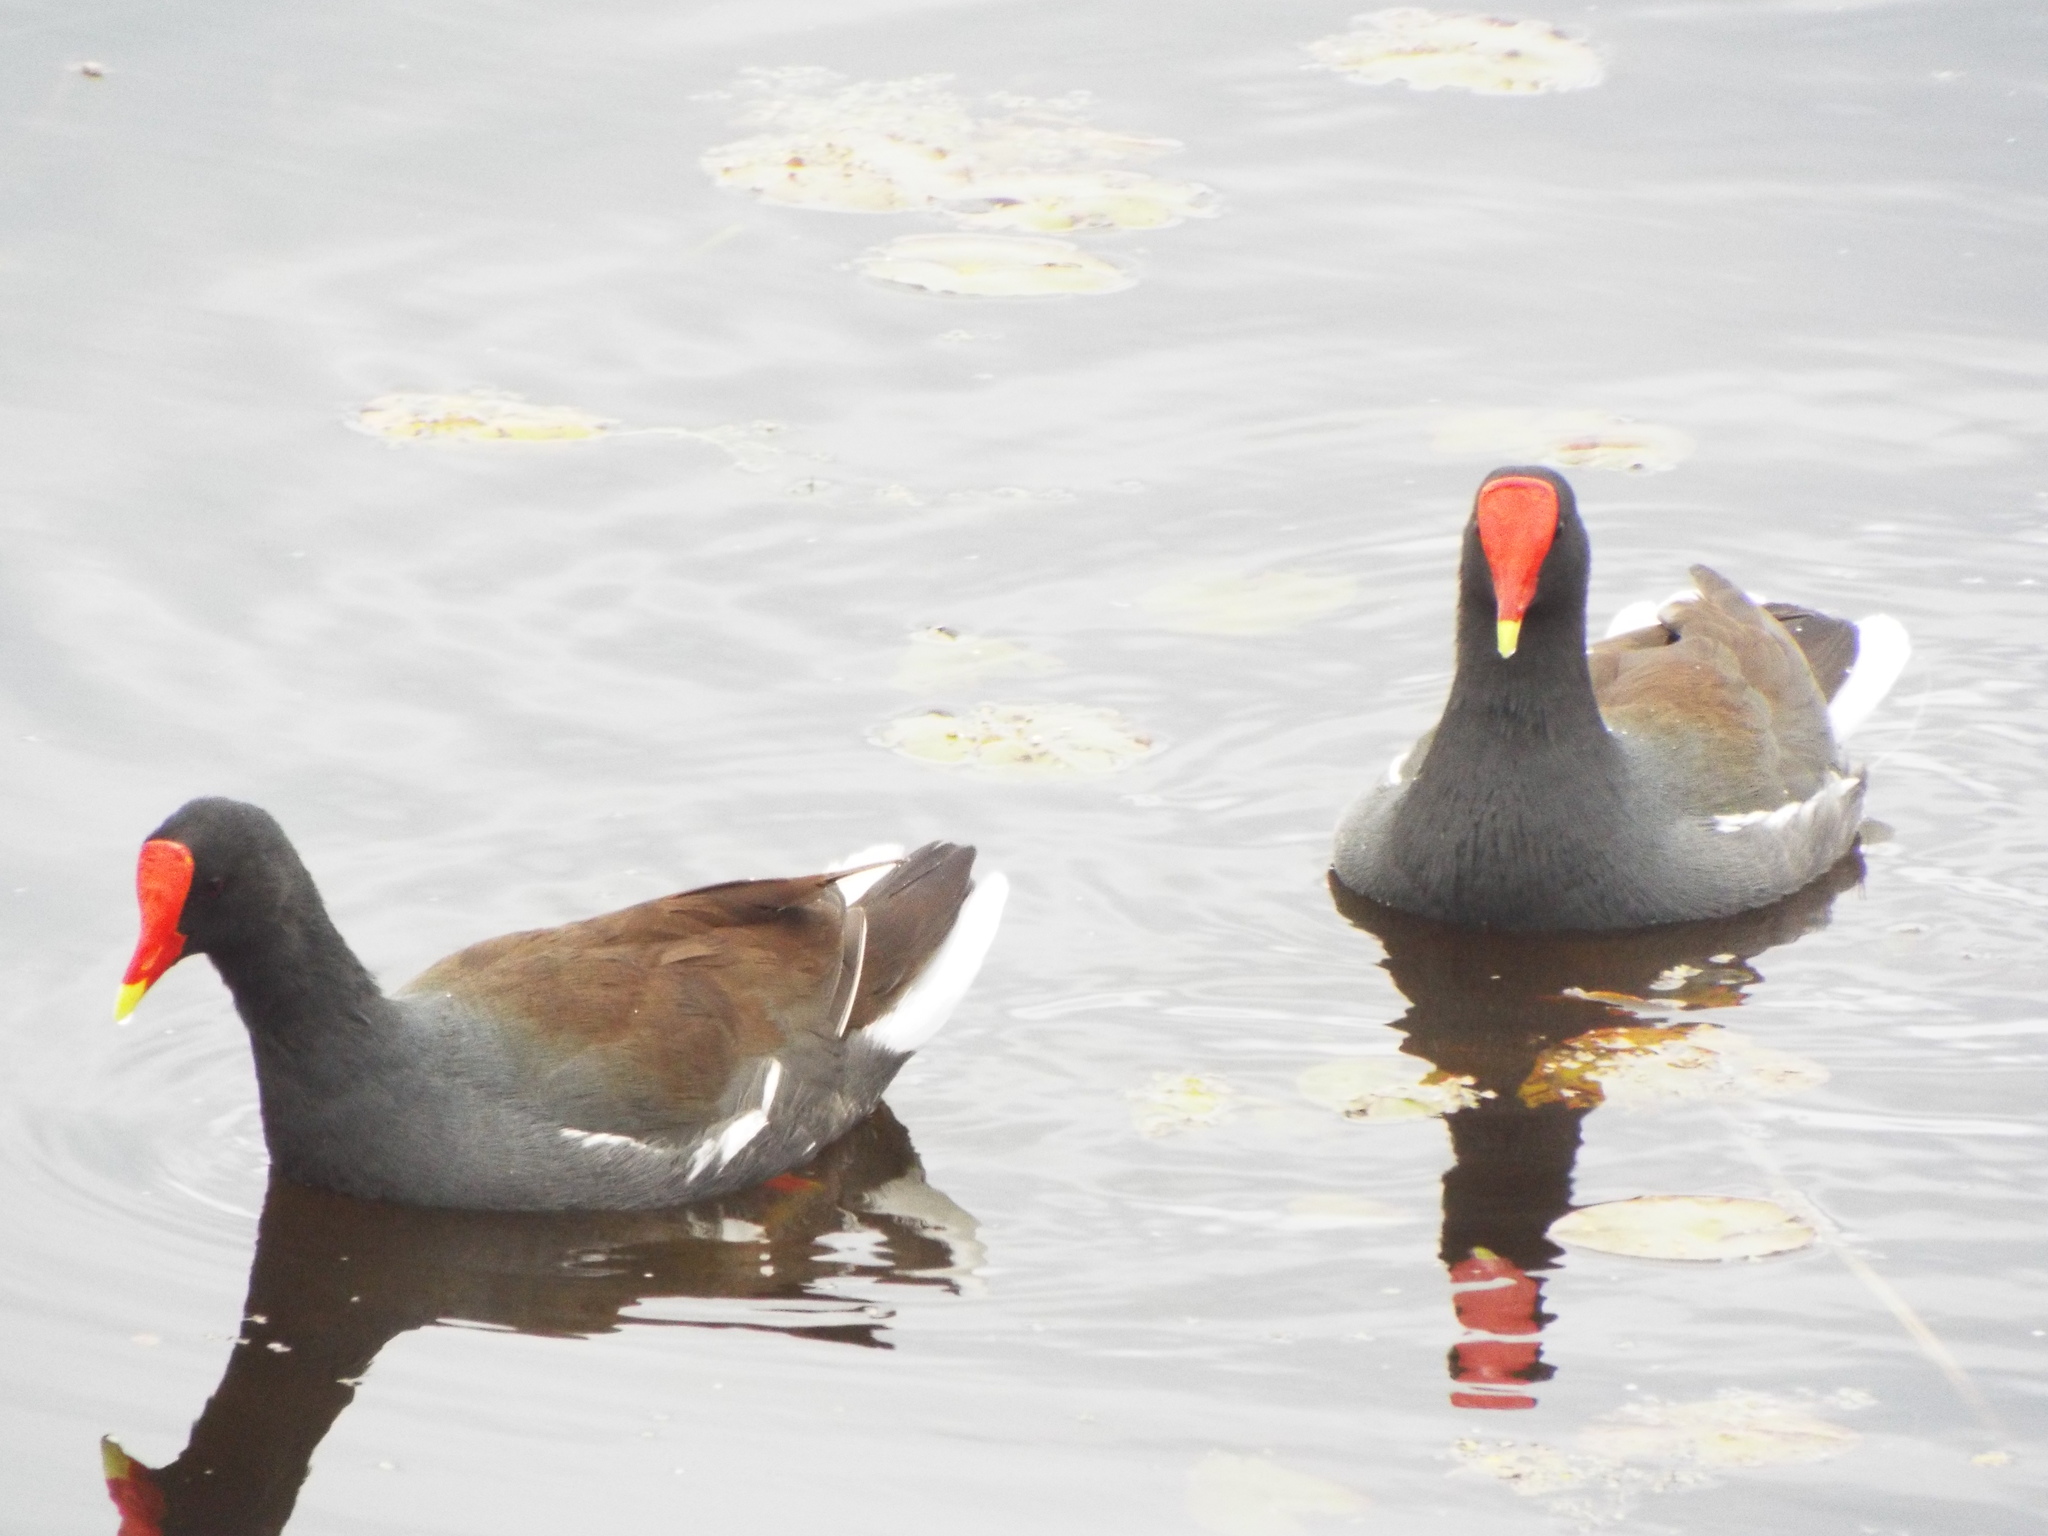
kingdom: Animalia
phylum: Chordata
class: Aves
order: Gruiformes
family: Rallidae
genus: Gallinula
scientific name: Gallinula chloropus
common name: Common moorhen
